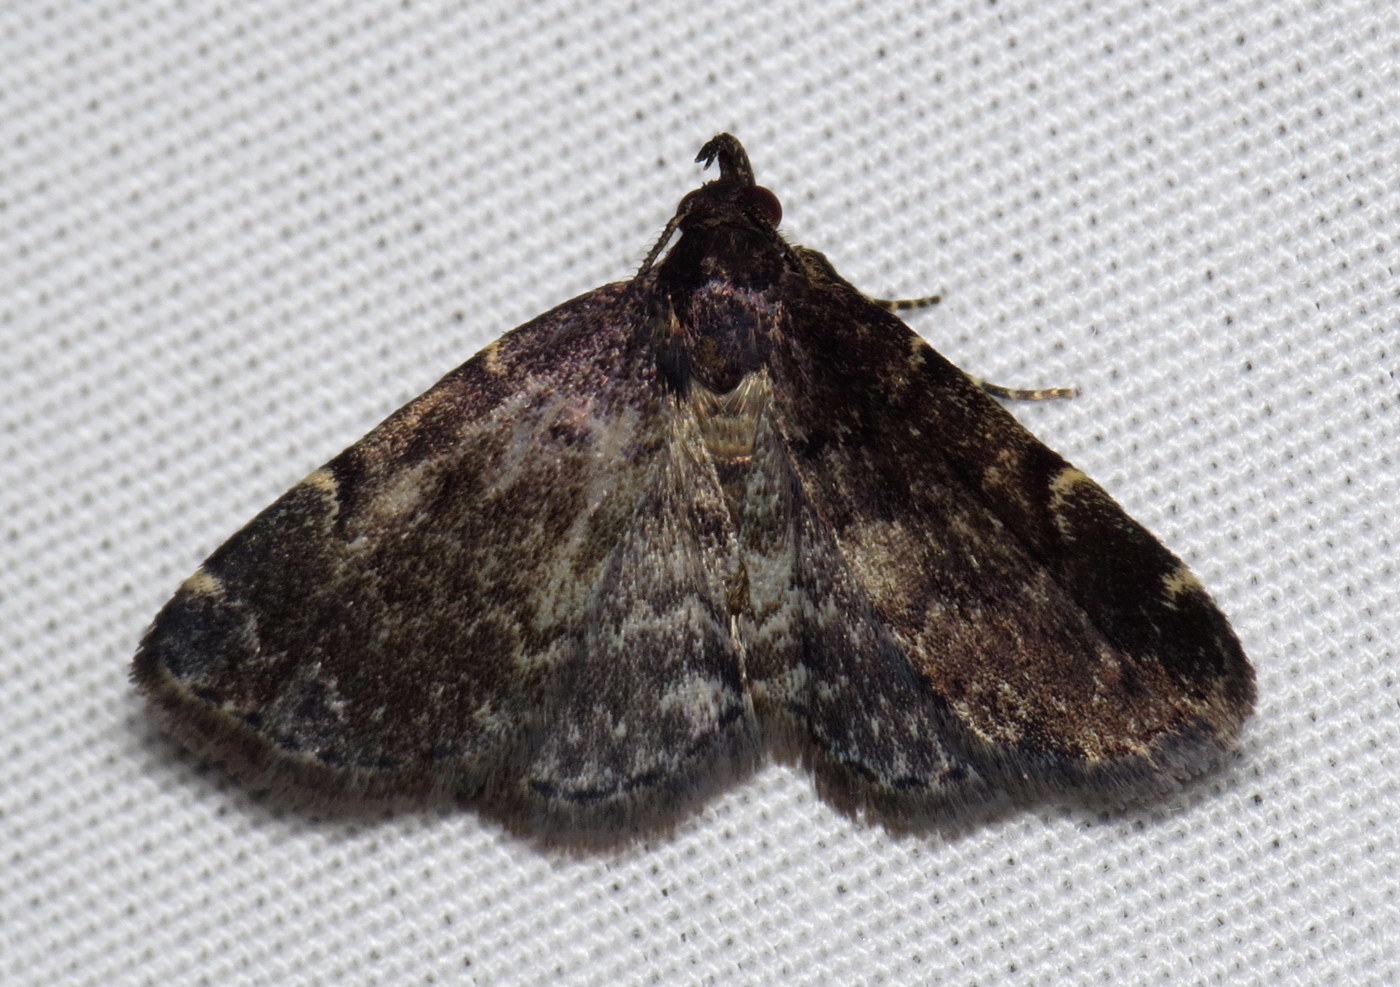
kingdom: Animalia
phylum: Arthropoda
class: Insecta
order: Lepidoptera
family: Erebidae
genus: Idia
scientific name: Idia forbesii
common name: Forbes' idia moth
